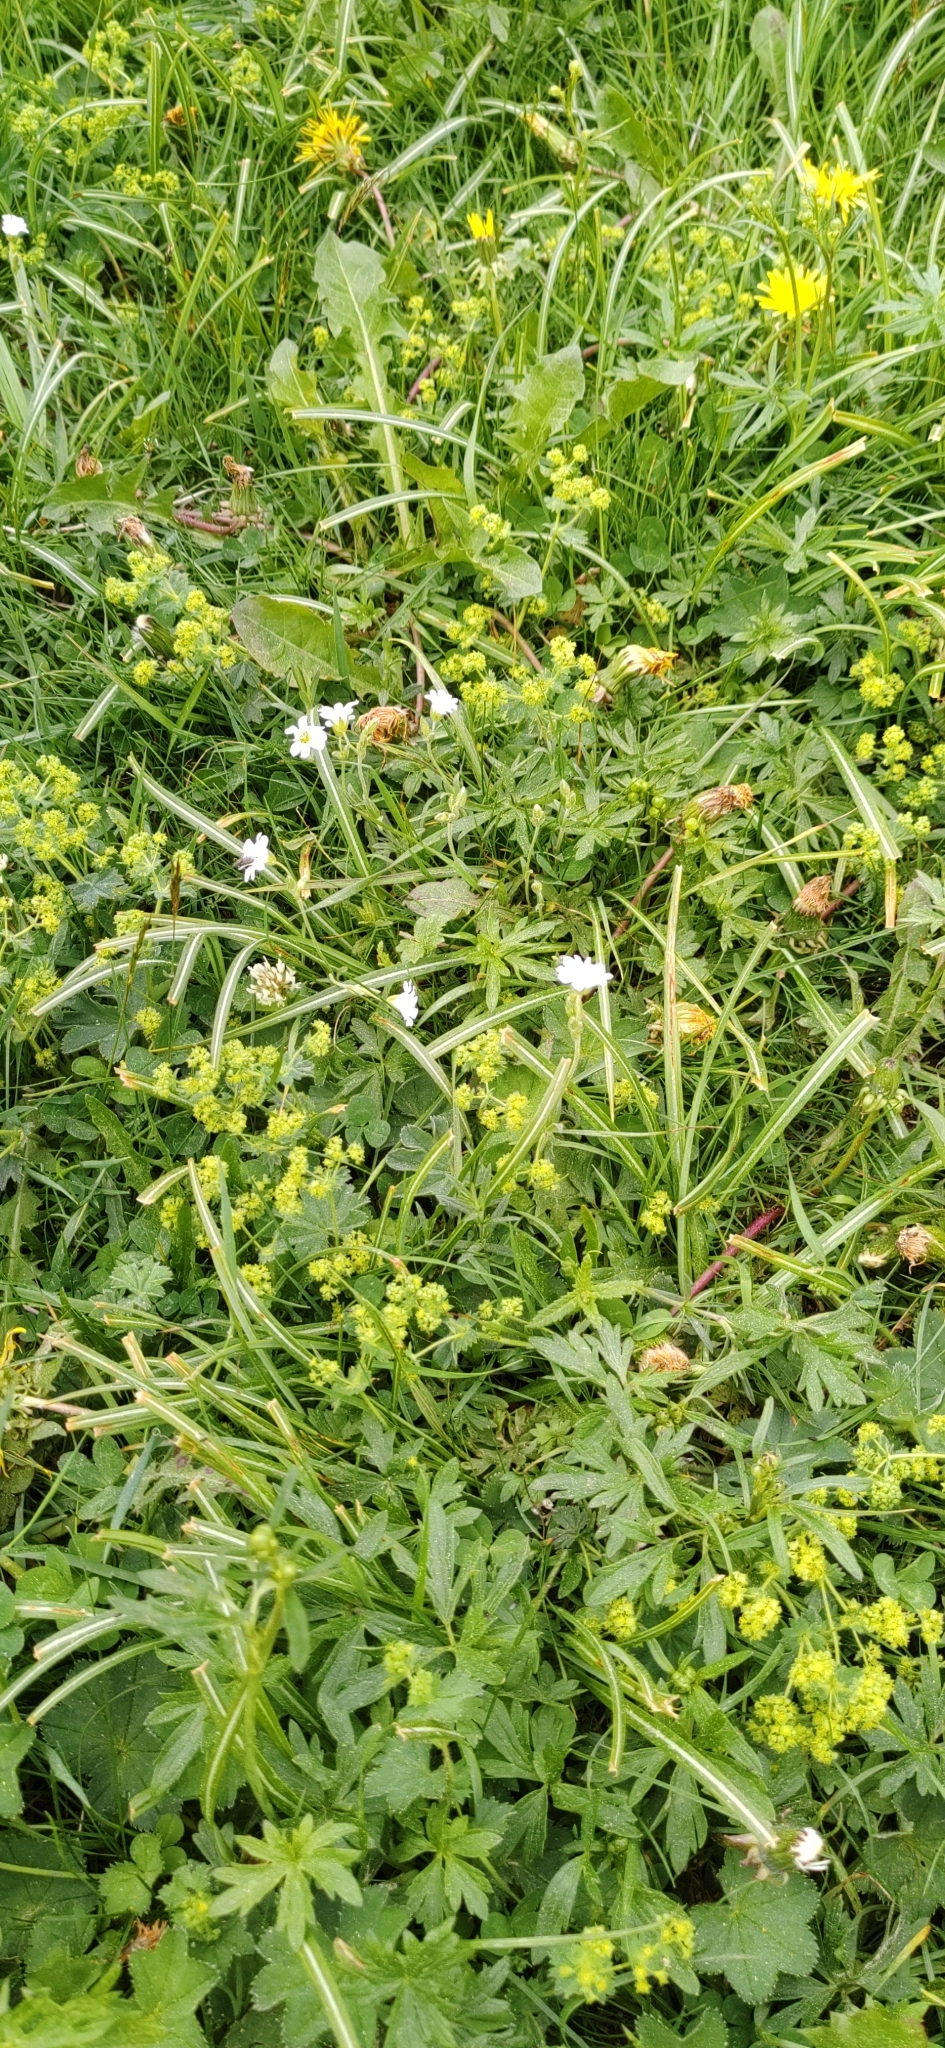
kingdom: Plantae
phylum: Tracheophyta
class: Magnoliopsida
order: Caryophyllales
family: Caryophyllaceae
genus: Cerastium
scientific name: Cerastium arvense
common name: Field mouse-ear
